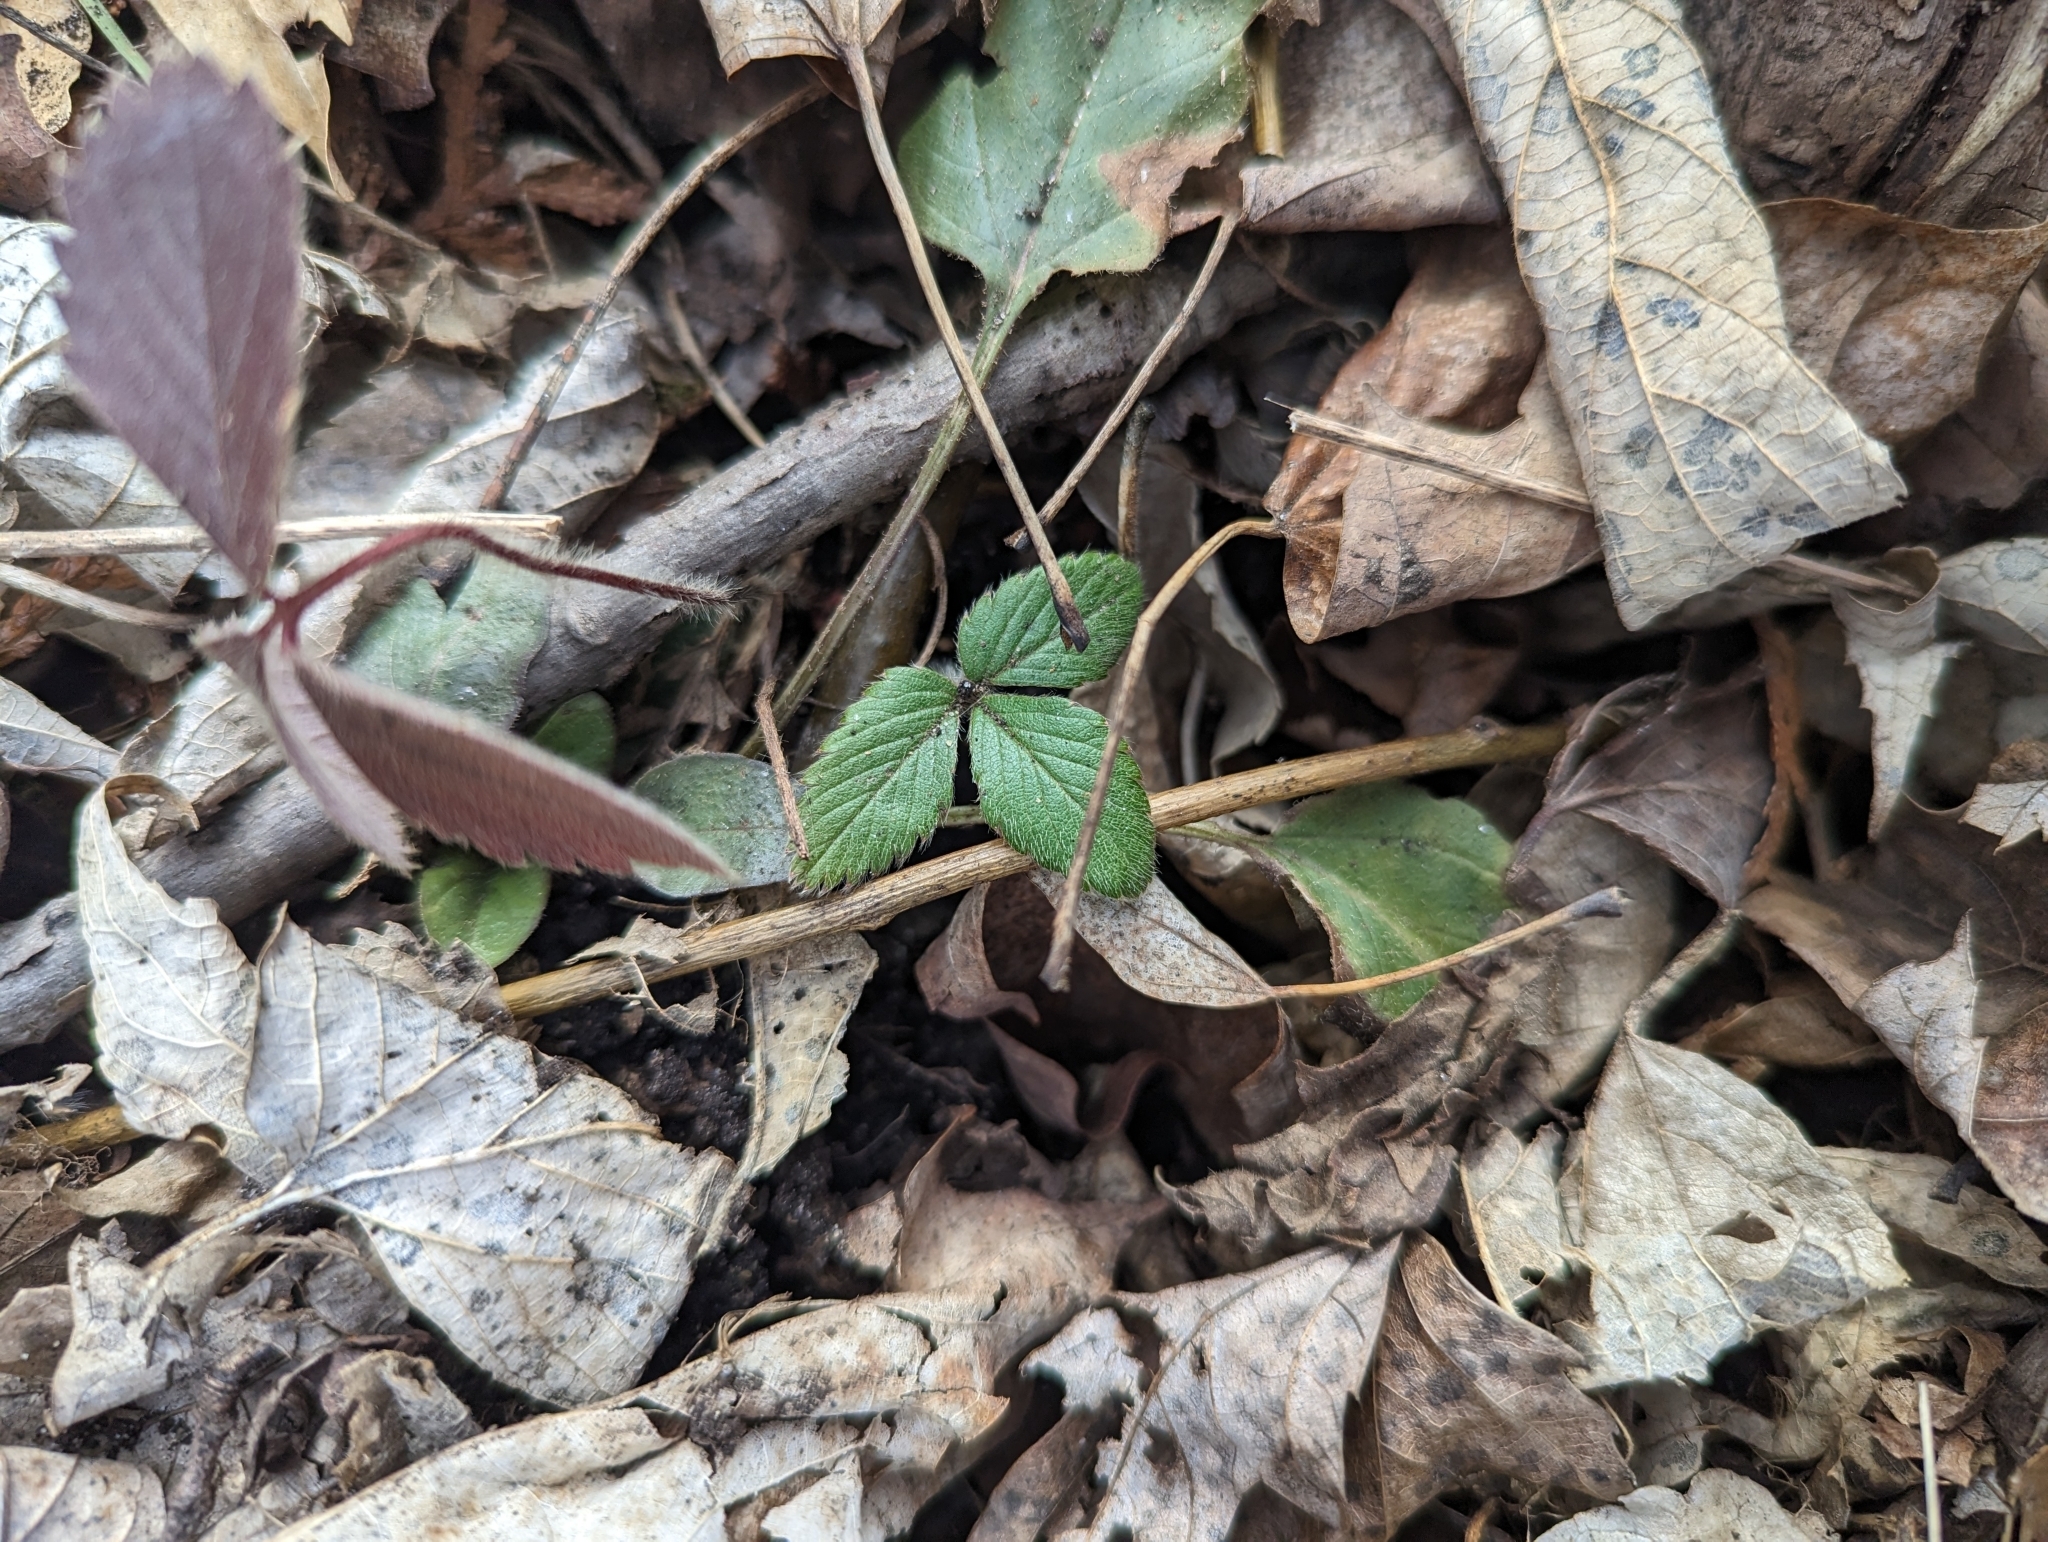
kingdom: Plantae
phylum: Tracheophyta
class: Magnoliopsida
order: Rosales
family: Rosaceae
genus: Fragaria
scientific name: Fragaria virginiana
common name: Thickleaved wild strawberry
